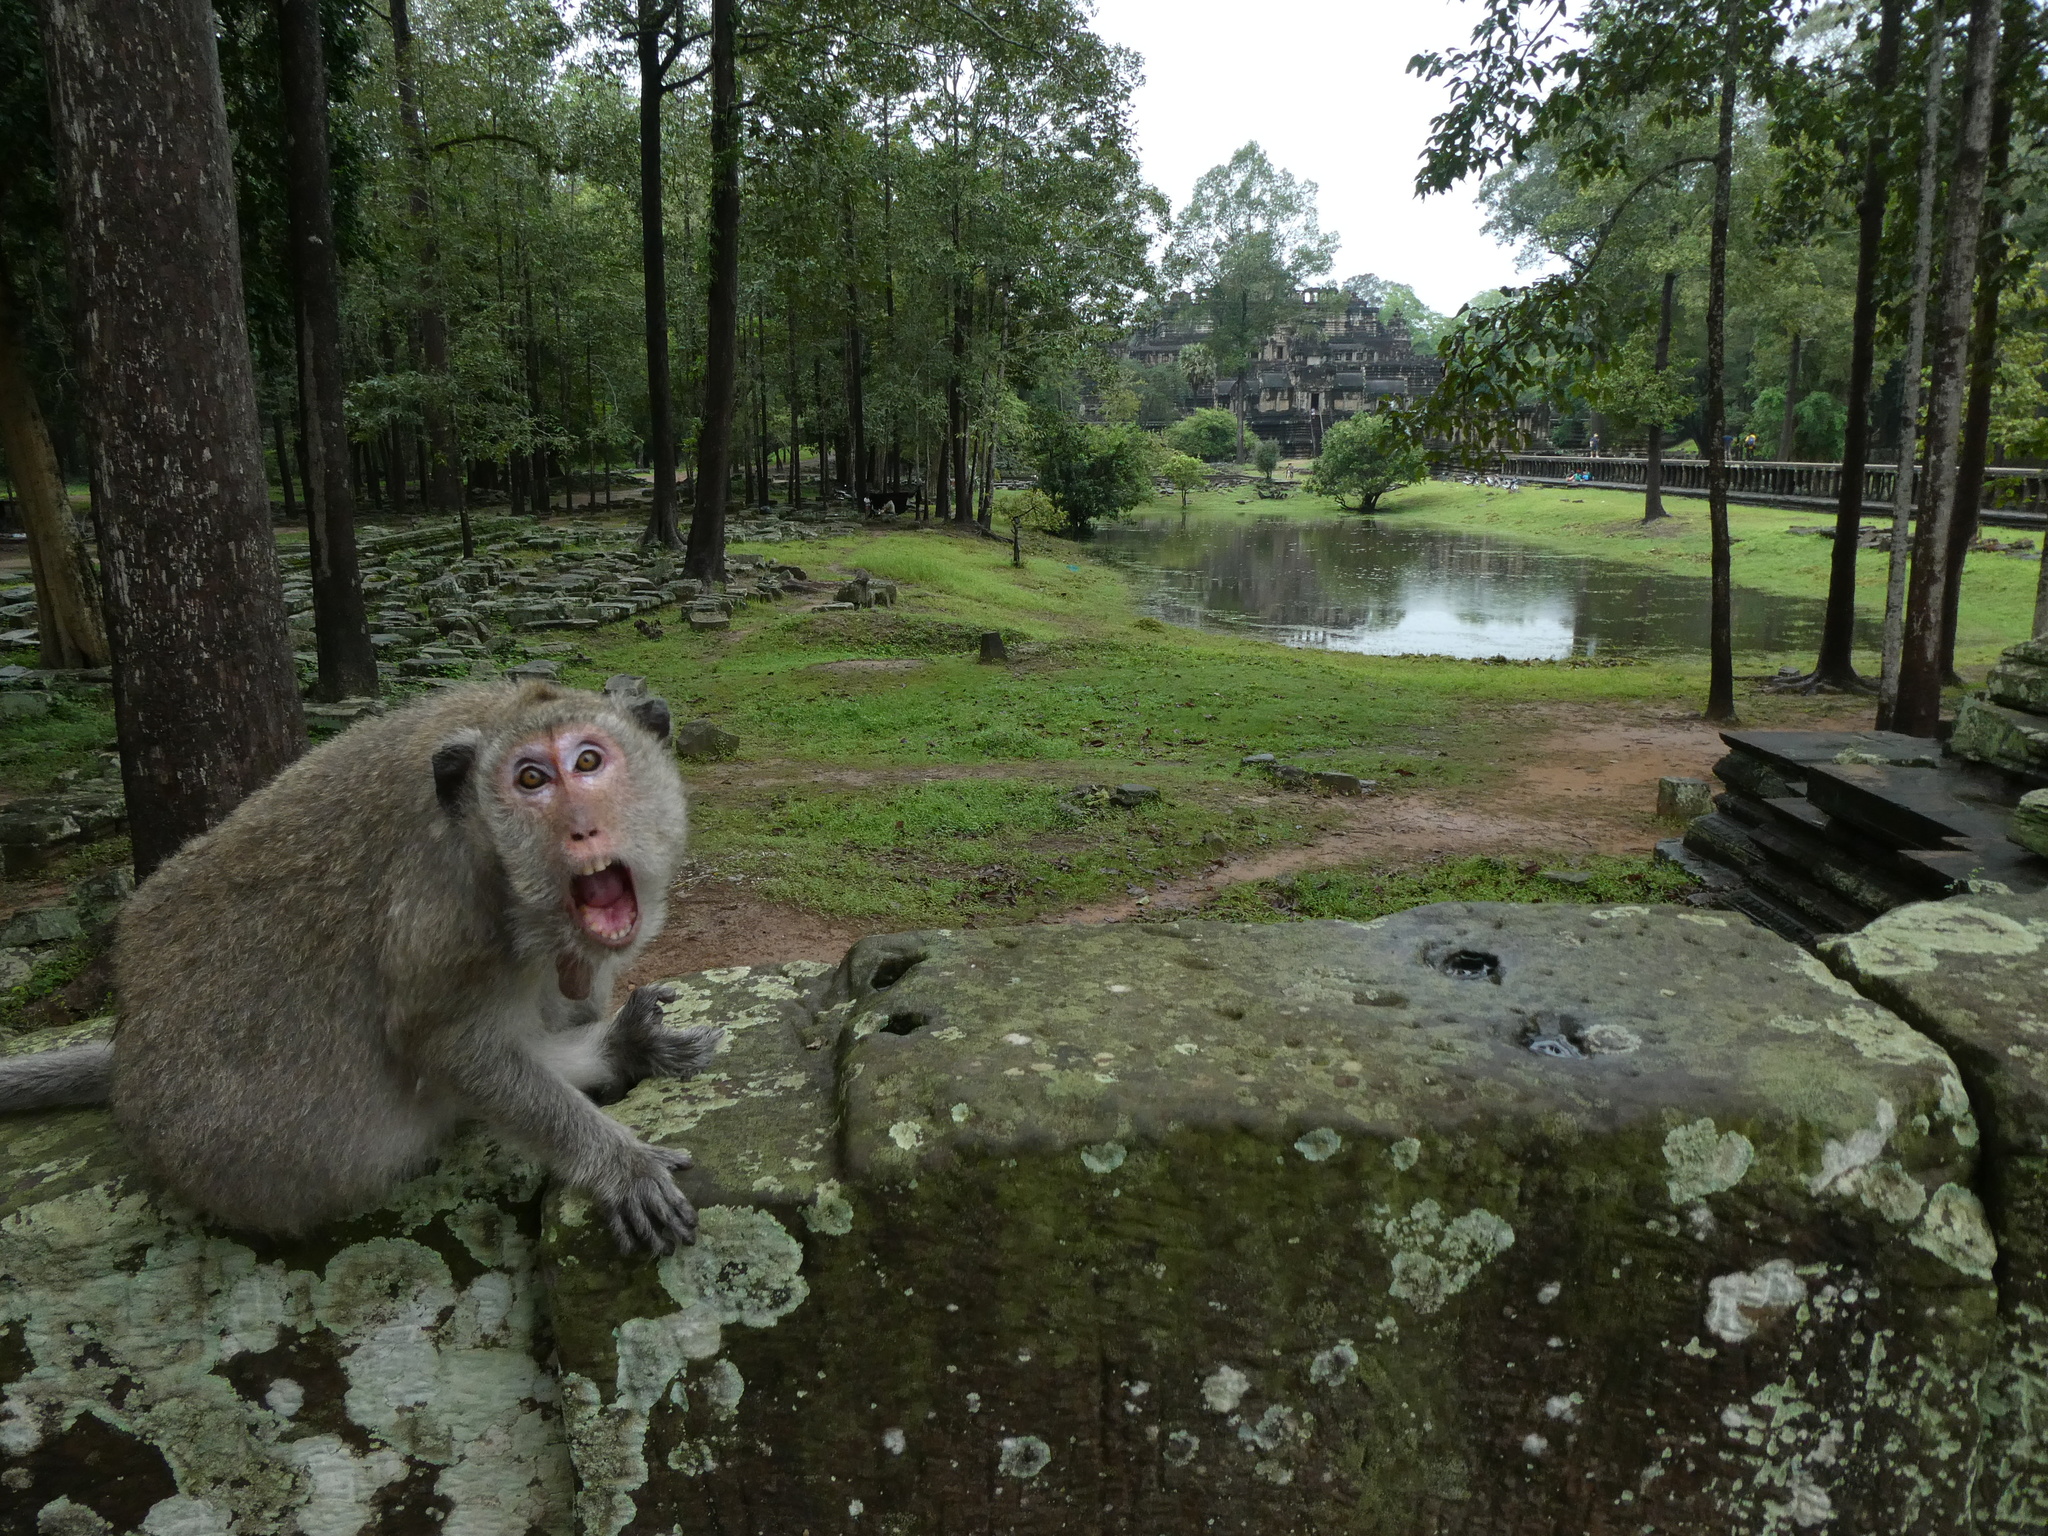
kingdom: Animalia
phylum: Chordata
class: Mammalia
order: Primates
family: Cercopithecidae
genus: Macaca
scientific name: Macaca fascicularis
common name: Crab-eating macaque
